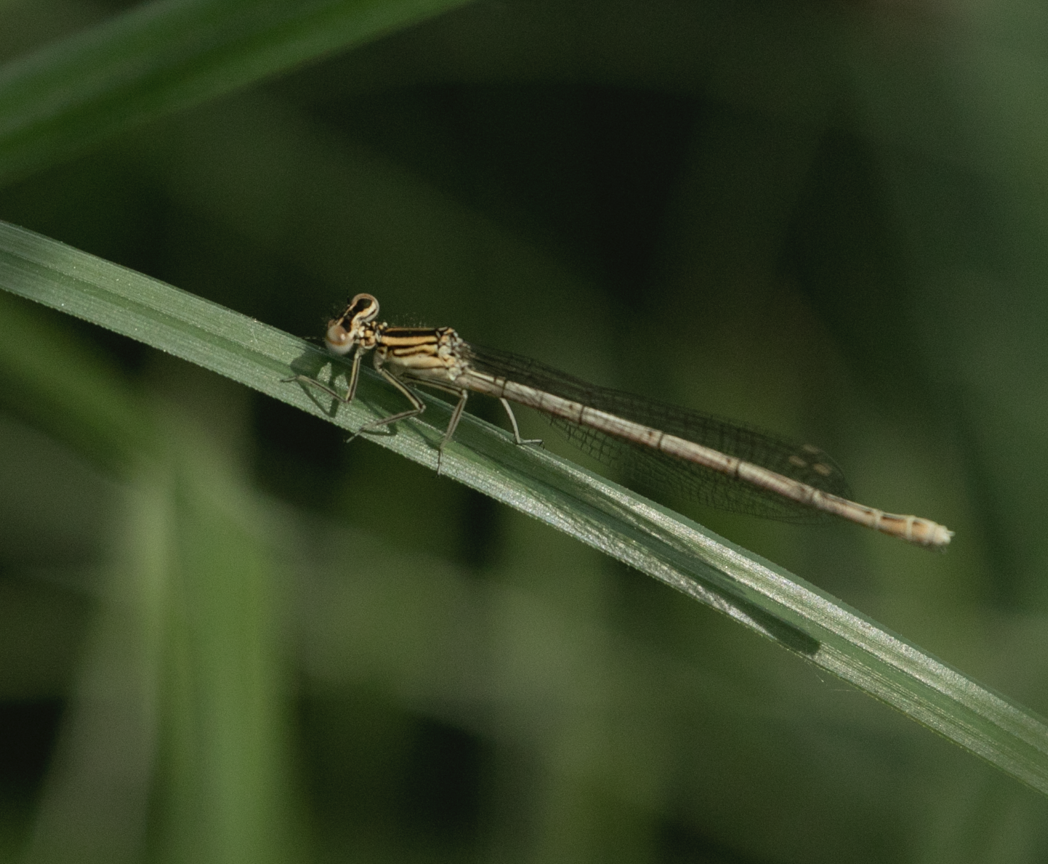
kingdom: Animalia
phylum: Arthropoda
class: Insecta
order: Odonata
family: Platycnemididae
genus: Platycnemis
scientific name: Platycnemis pennipes
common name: White-legged damselfly
